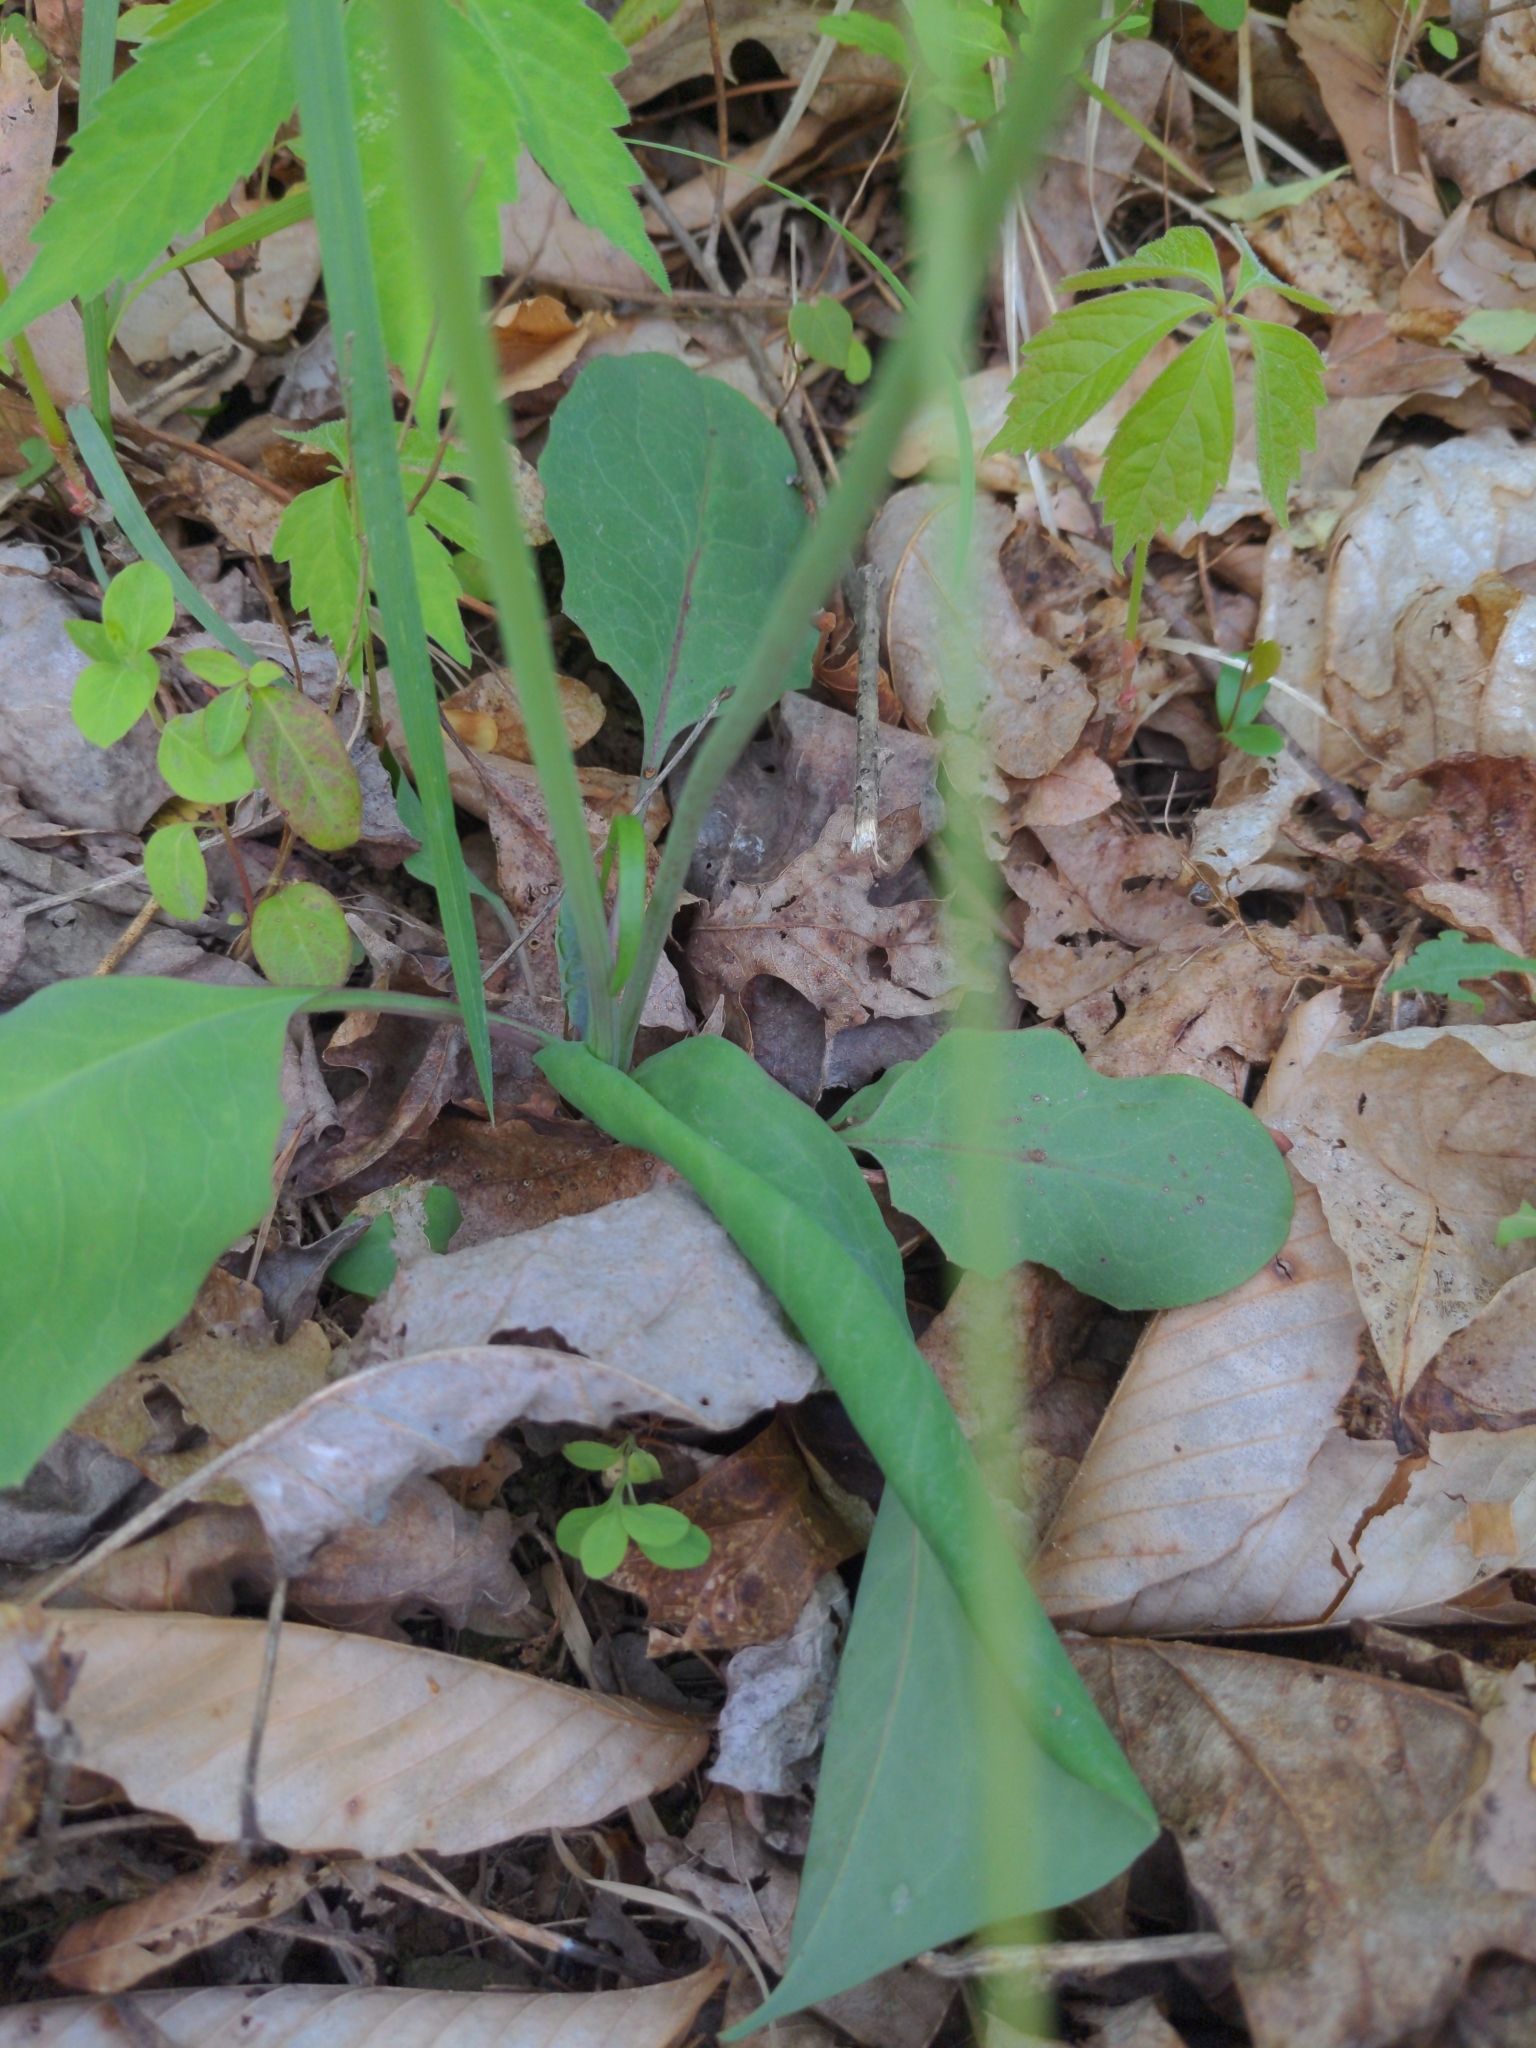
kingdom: Plantae
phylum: Tracheophyta
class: Magnoliopsida
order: Asterales
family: Asteraceae
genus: Krigia
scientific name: Krigia biflora
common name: Orange dwarf-dandelion
